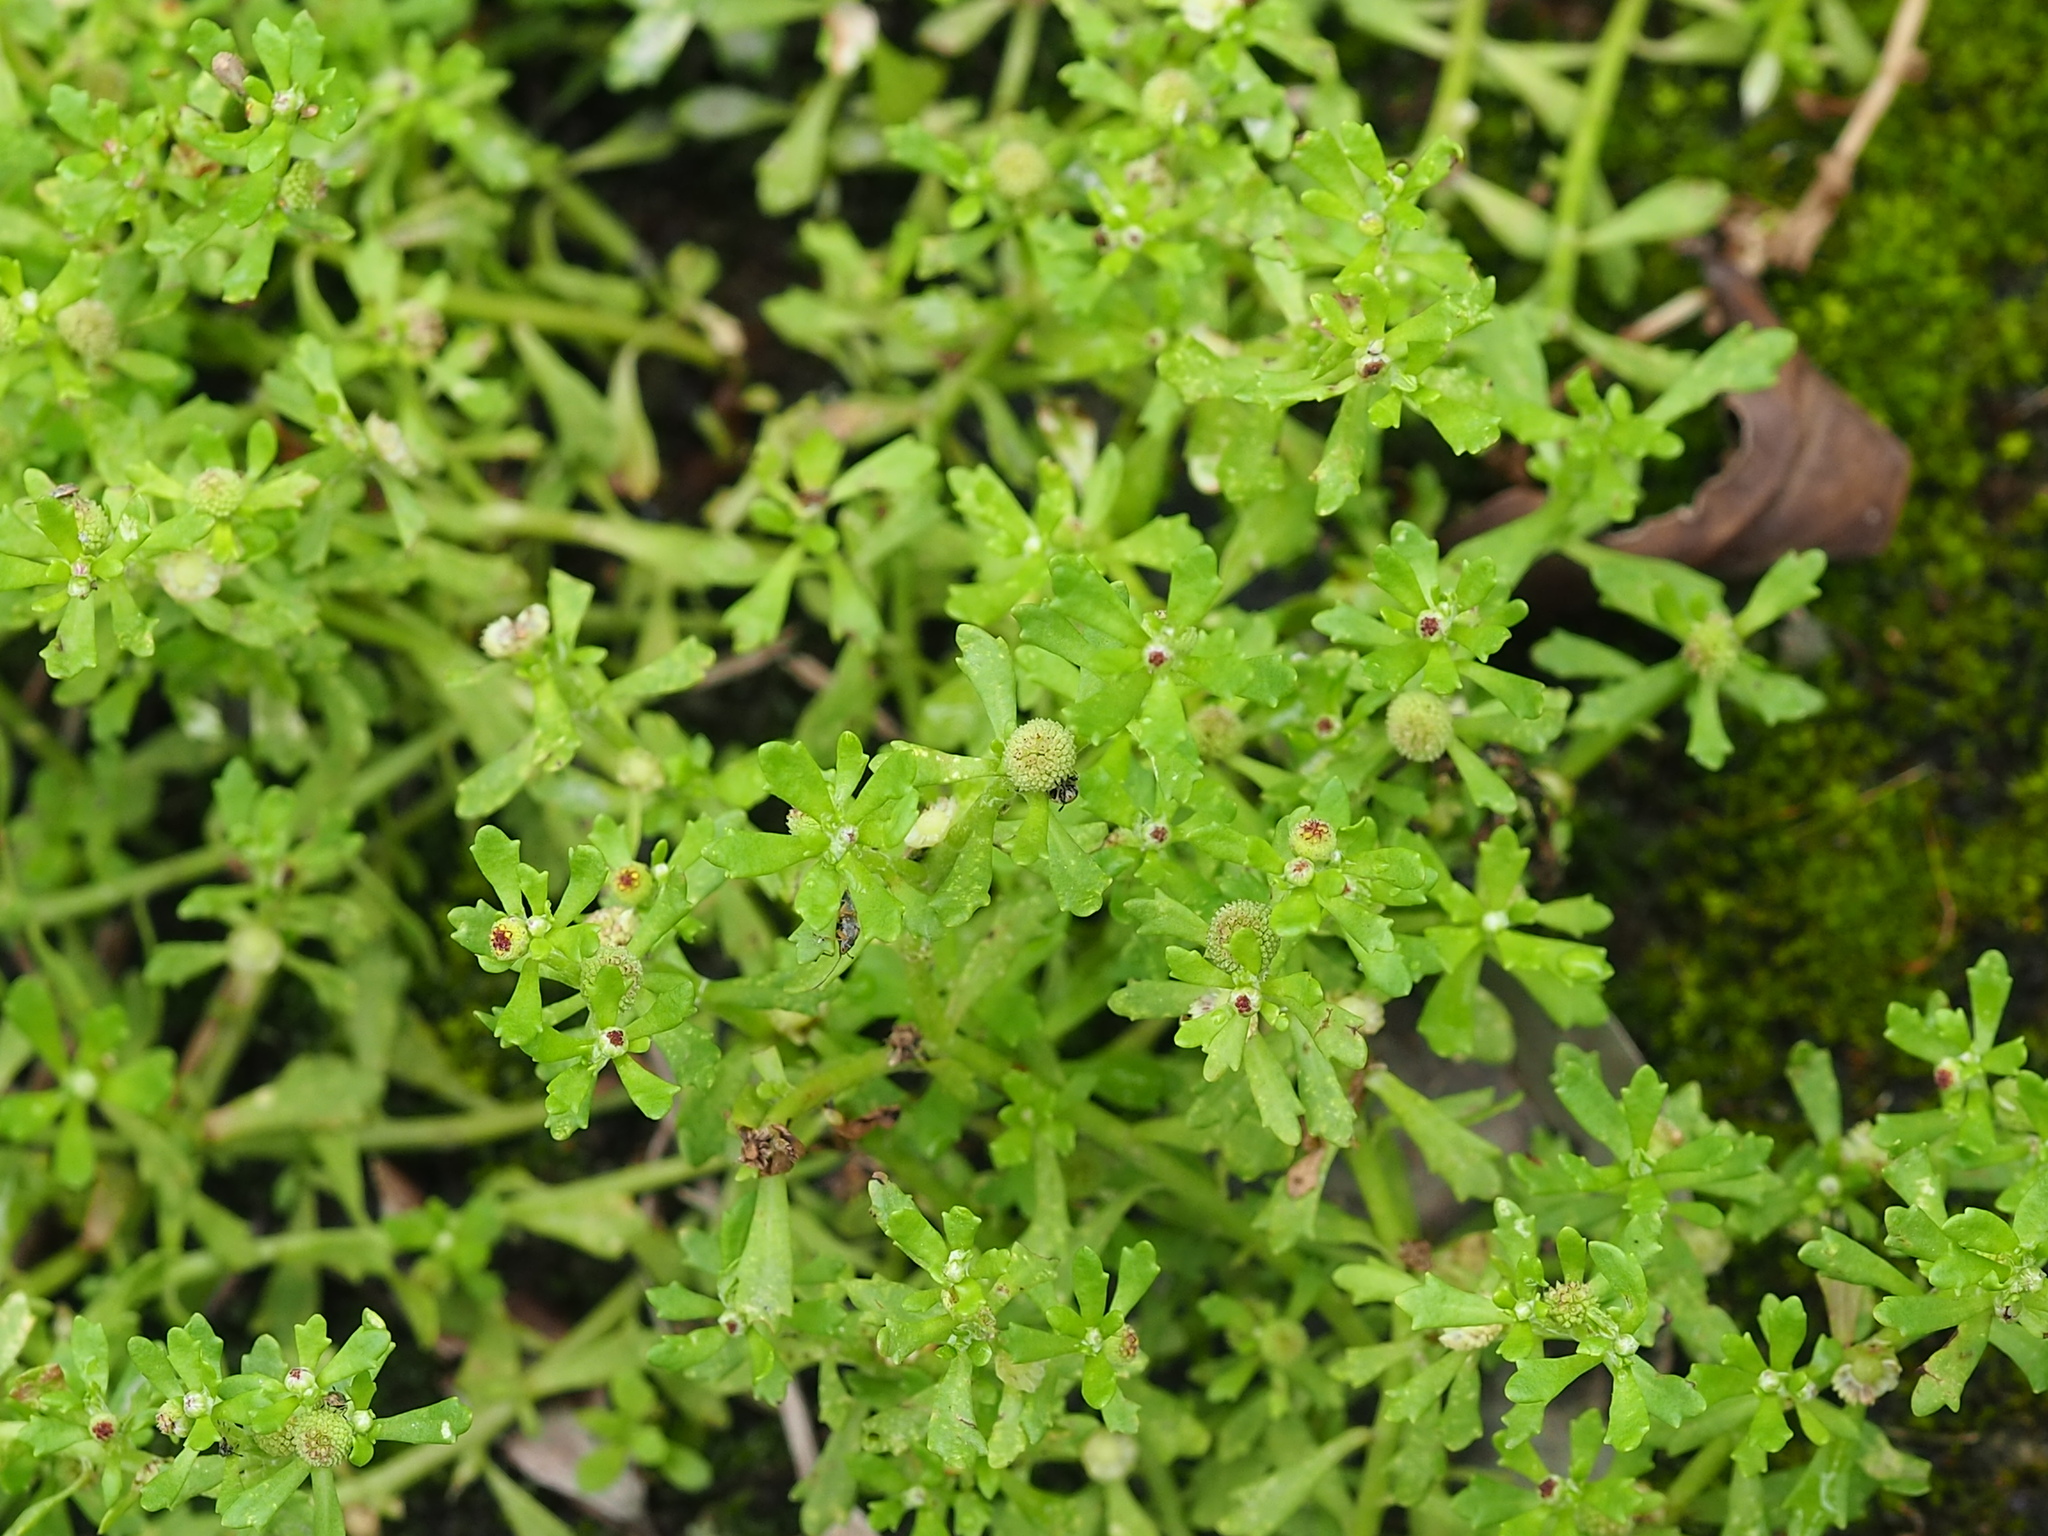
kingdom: Plantae
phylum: Tracheophyta
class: Magnoliopsida
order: Asterales
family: Asteraceae
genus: Centipeda
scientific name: Centipeda minima
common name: Spreading sneezeweed
